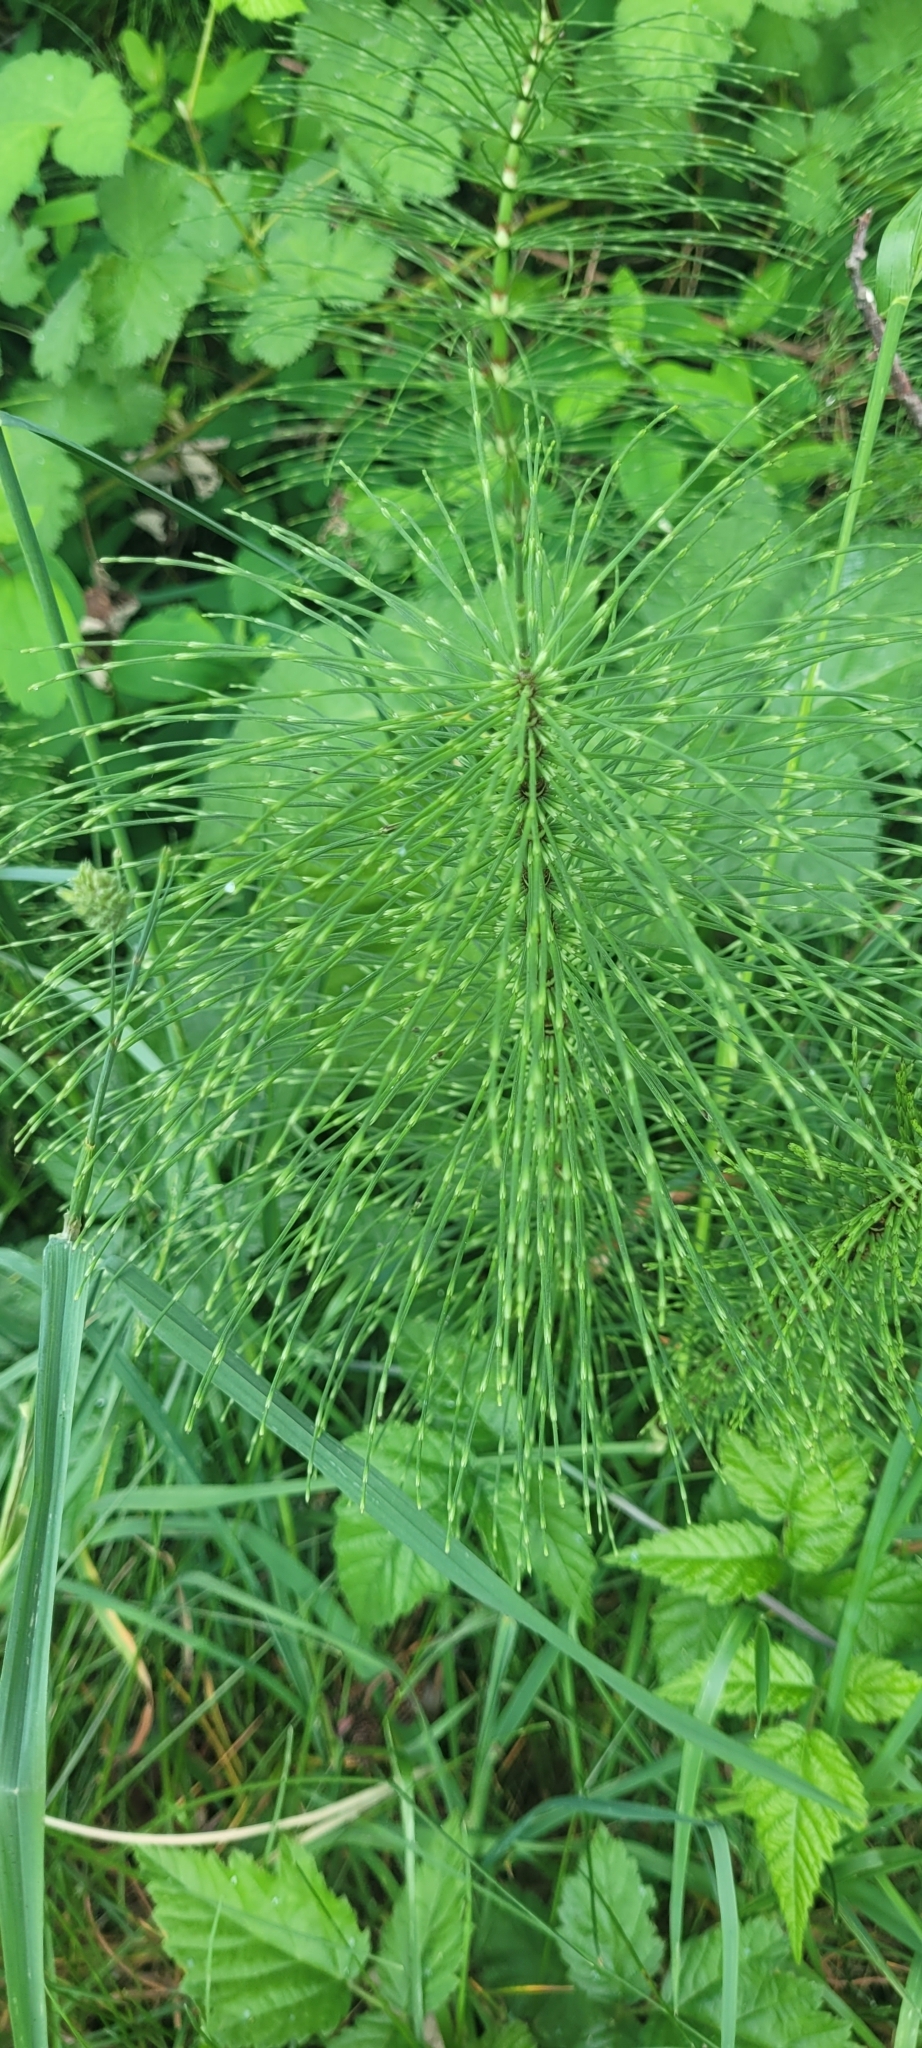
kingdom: Plantae
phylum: Tracheophyta
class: Polypodiopsida
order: Equisetales
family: Equisetaceae
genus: Equisetum
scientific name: Equisetum braunii
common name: Braun's horsetail
